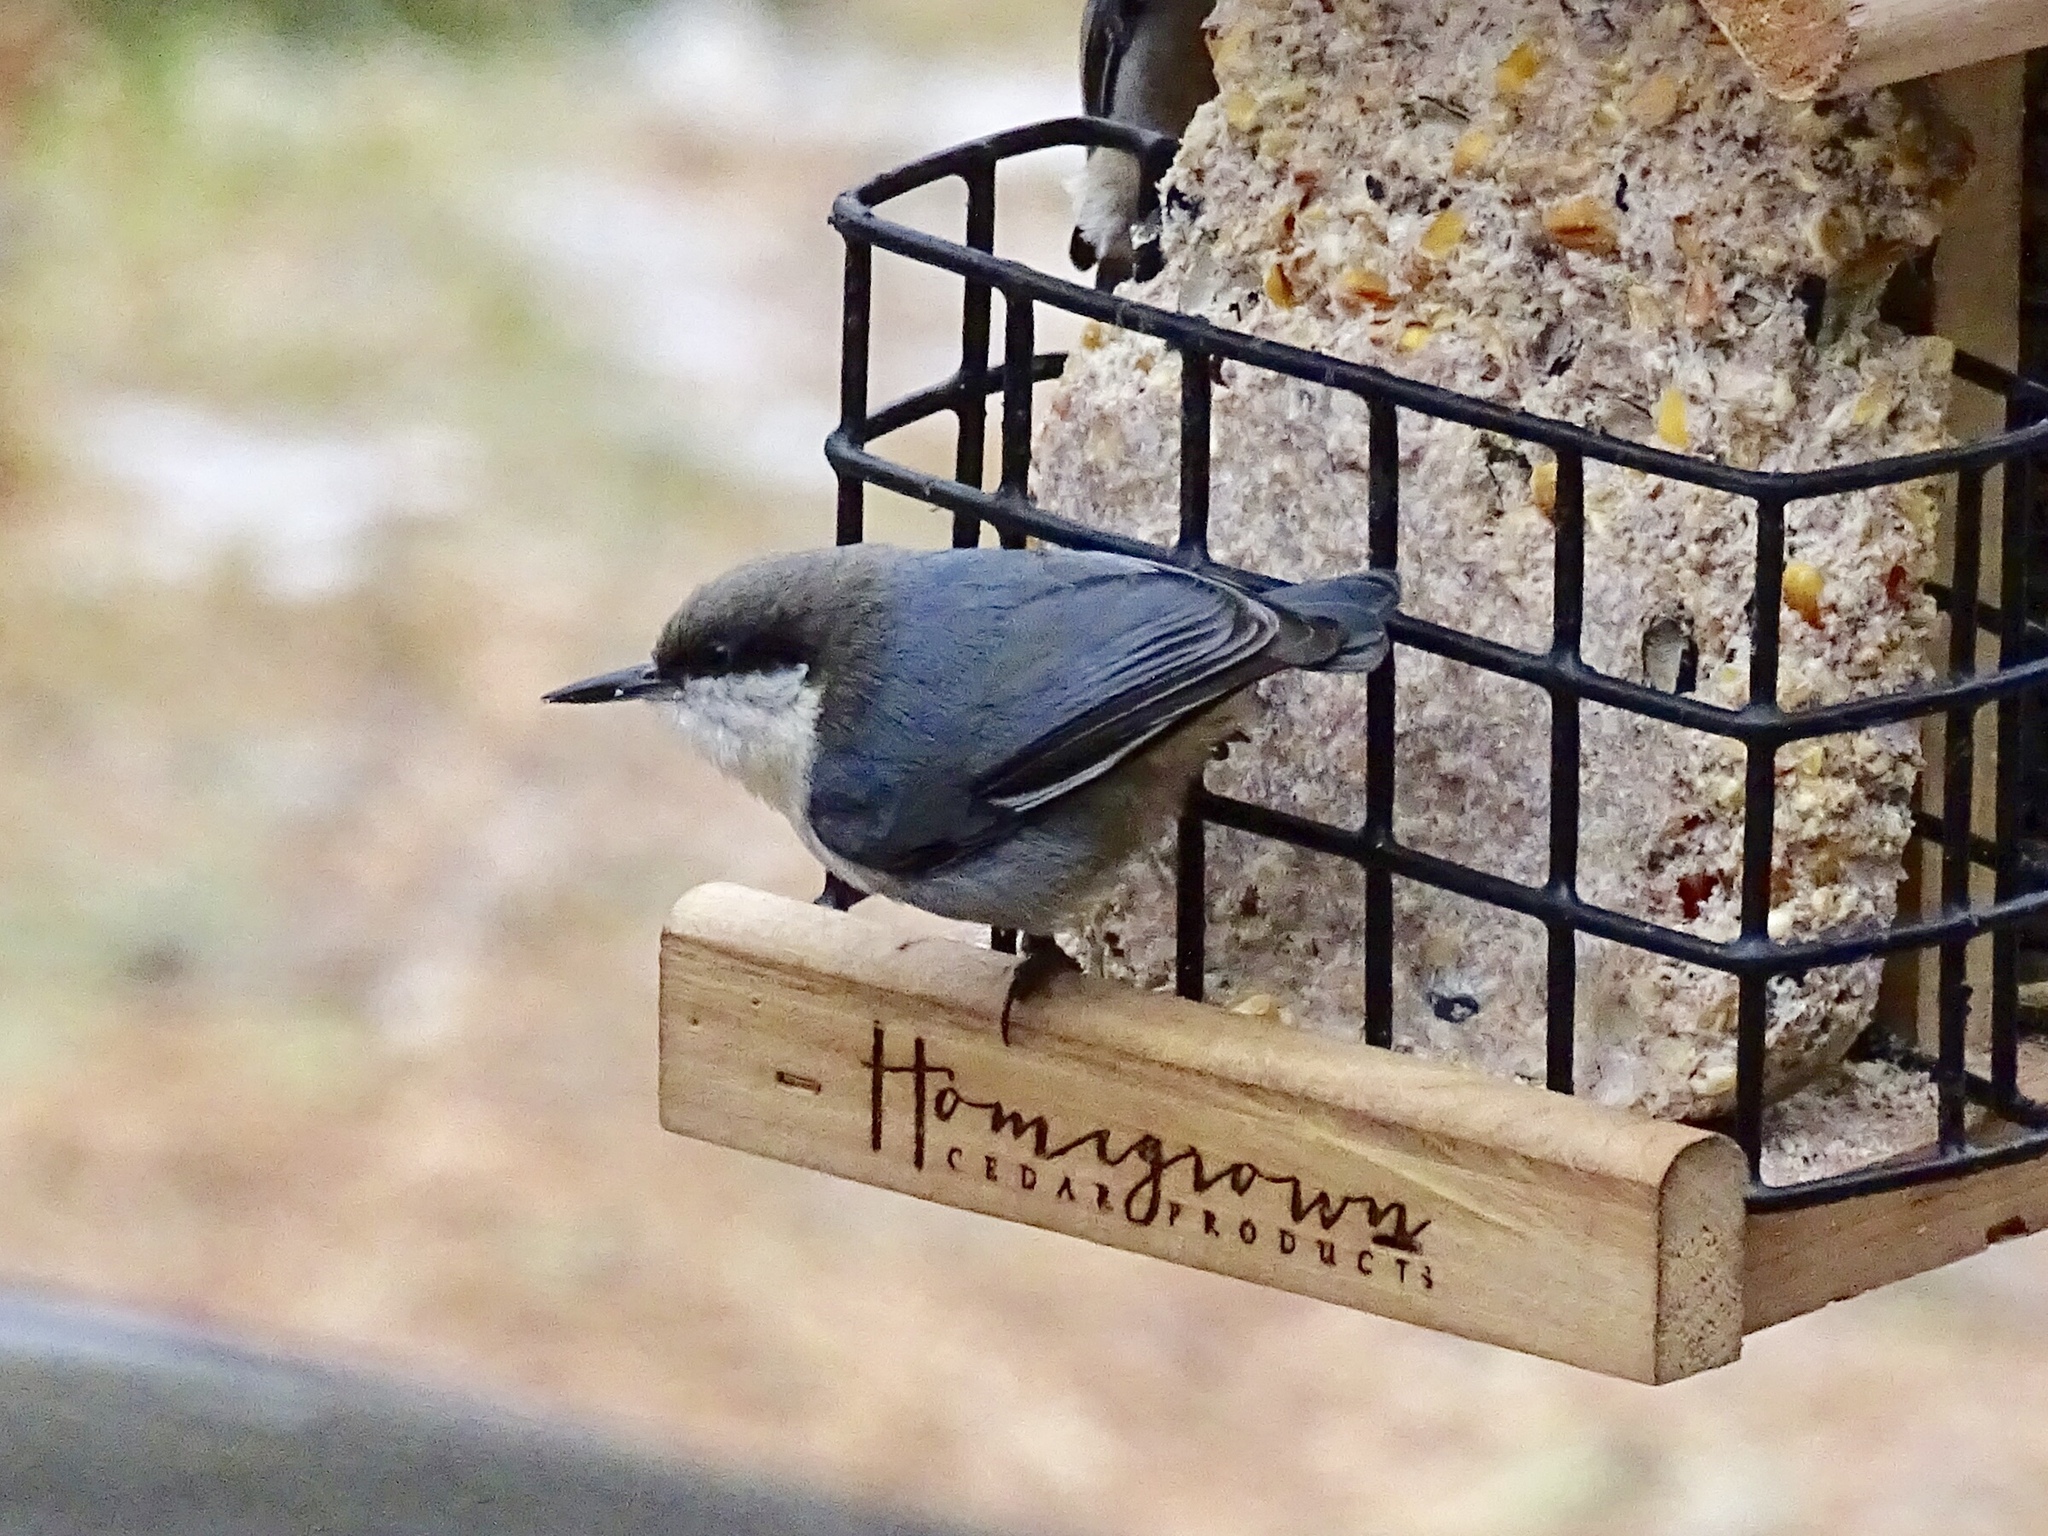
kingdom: Animalia
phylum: Chordata
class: Aves
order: Passeriformes
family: Sittidae
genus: Sitta
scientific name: Sitta pygmaea
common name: Pygmy nuthatch
